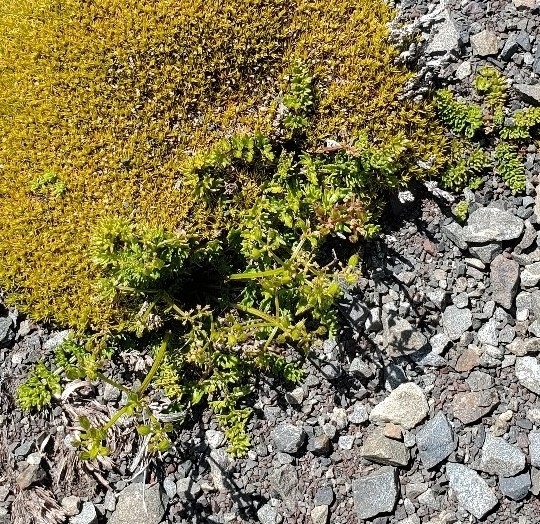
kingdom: Plantae
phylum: Tracheophyta
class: Magnoliopsida
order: Apiales
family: Apiaceae
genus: Anisotome
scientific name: Anisotome flexuosa
